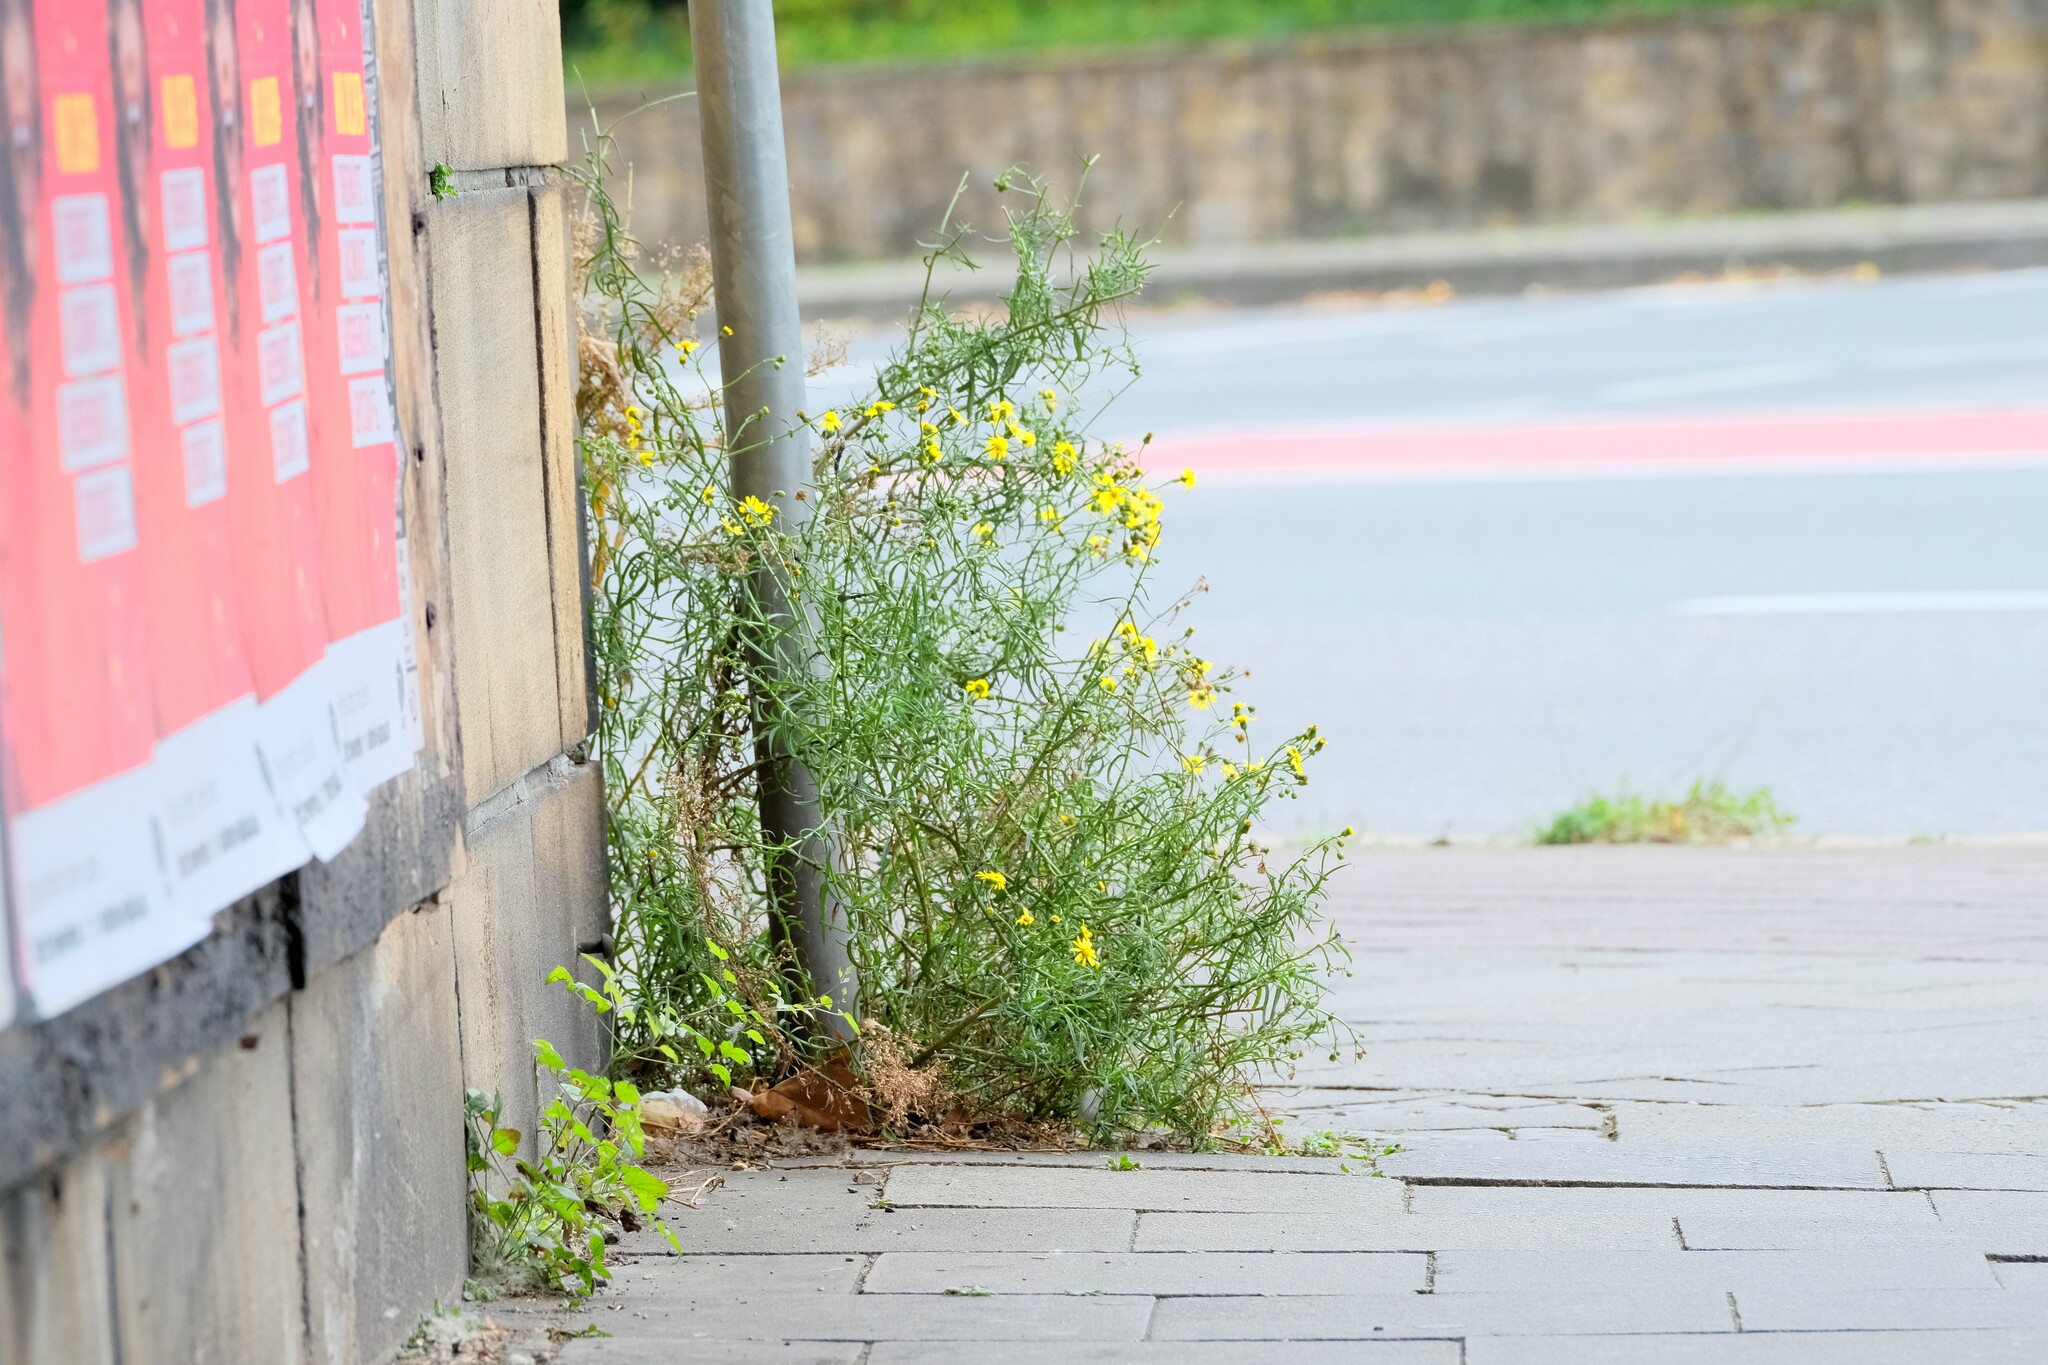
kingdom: Plantae
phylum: Tracheophyta
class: Magnoliopsida
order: Asterales
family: Asteraceae
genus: Senecio
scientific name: Senecio inaequidens
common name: Narrow-leaved ragwort
